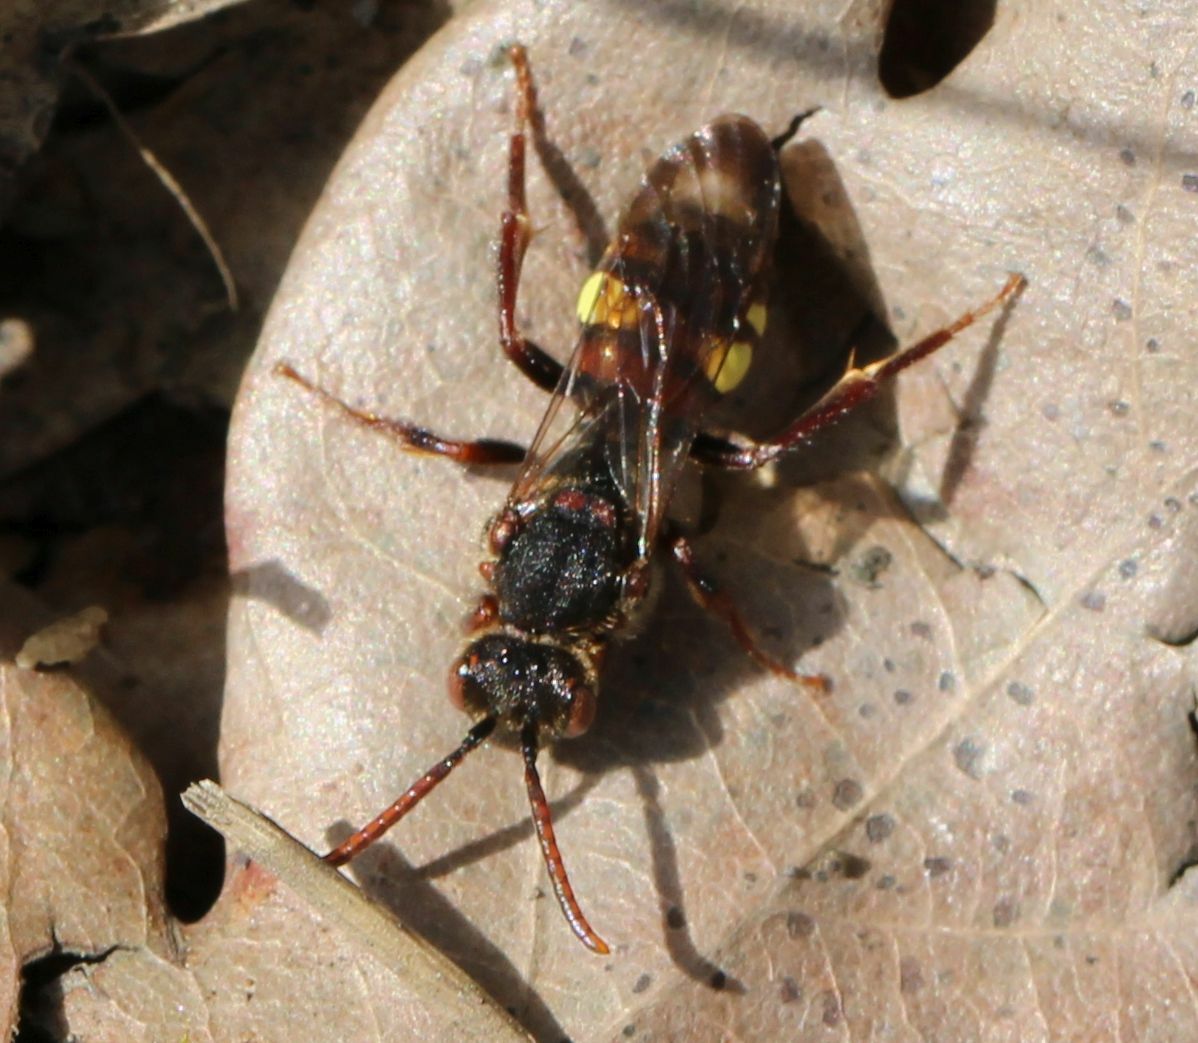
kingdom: Animalia
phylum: Arthropoda
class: Insecta
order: Hymenoptera
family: Apidae
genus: Nomada
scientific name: Nomada leucophthalma
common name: Early nomad bee
